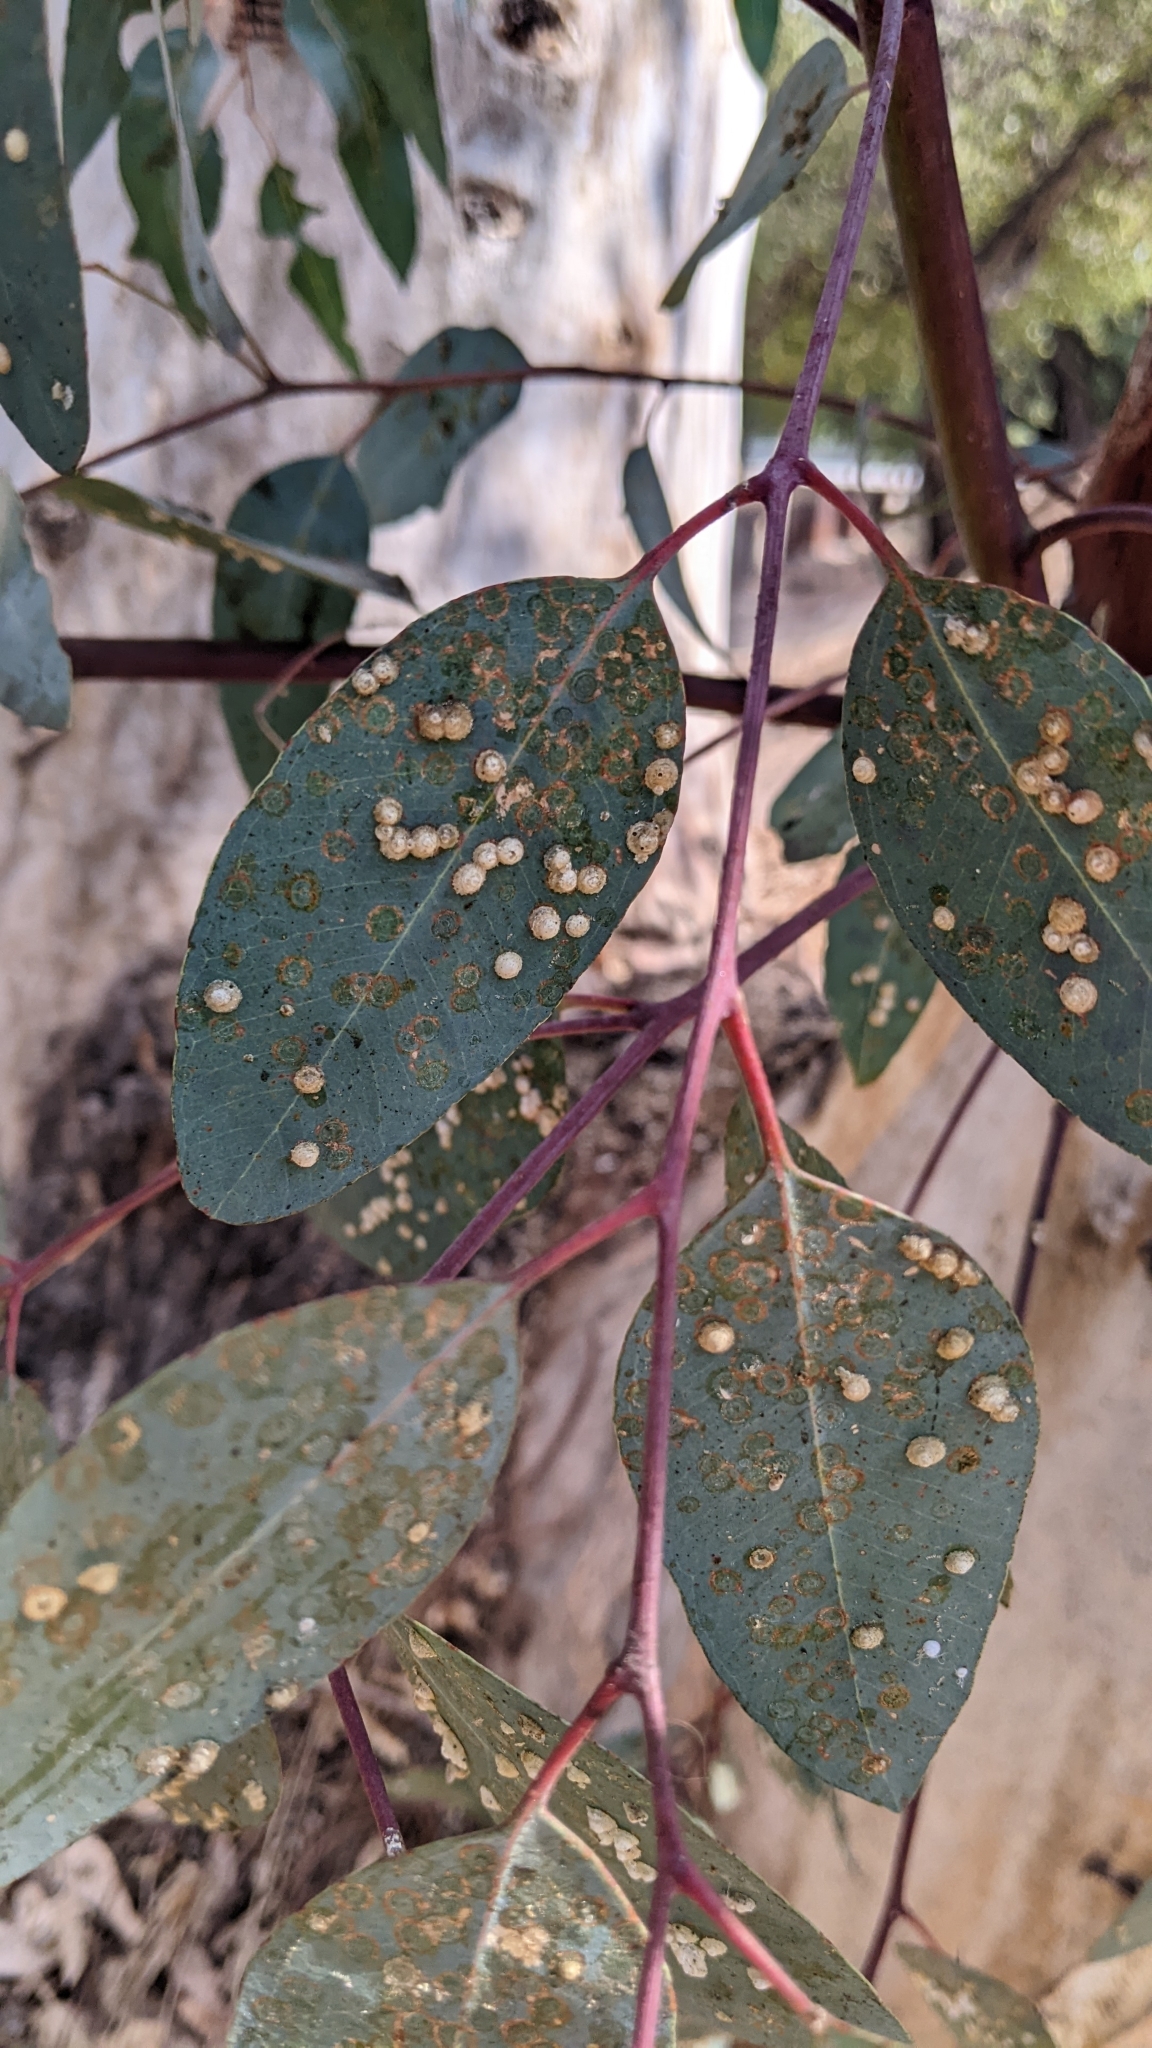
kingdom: Animalia
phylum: Arthropoda
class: Insecta
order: Hemiptera
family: Aphalaridae
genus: Glycaspis
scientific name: Glycaspis brimblecombei
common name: Red gum lerp psyllid
